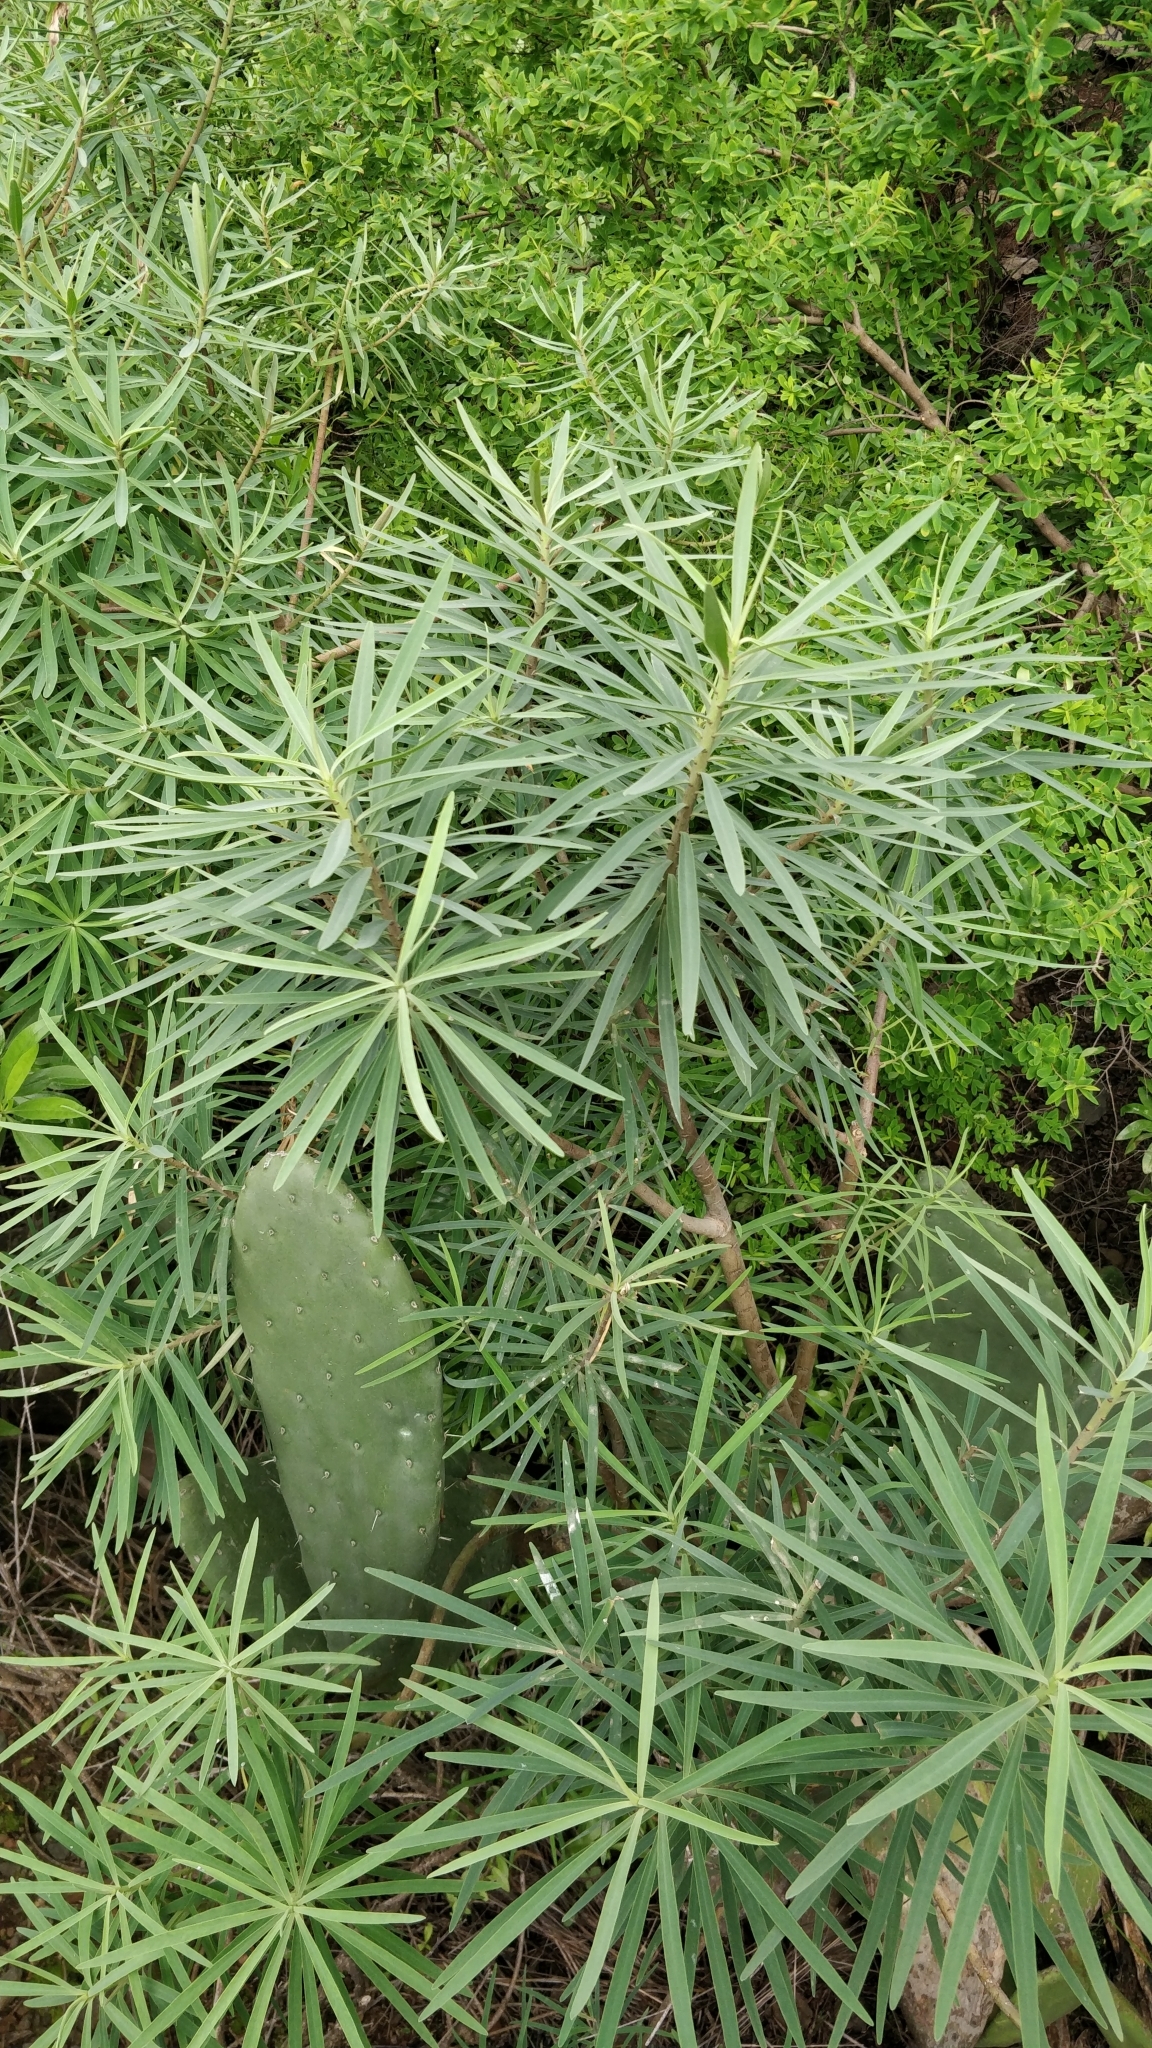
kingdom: Plantae
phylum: Tracheophyta
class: Magnoliopsida
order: Malpighiales
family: Euphorbiaceae
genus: Euphorbia
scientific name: Euphorbia piscatoria
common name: Fish-stunning spurge
